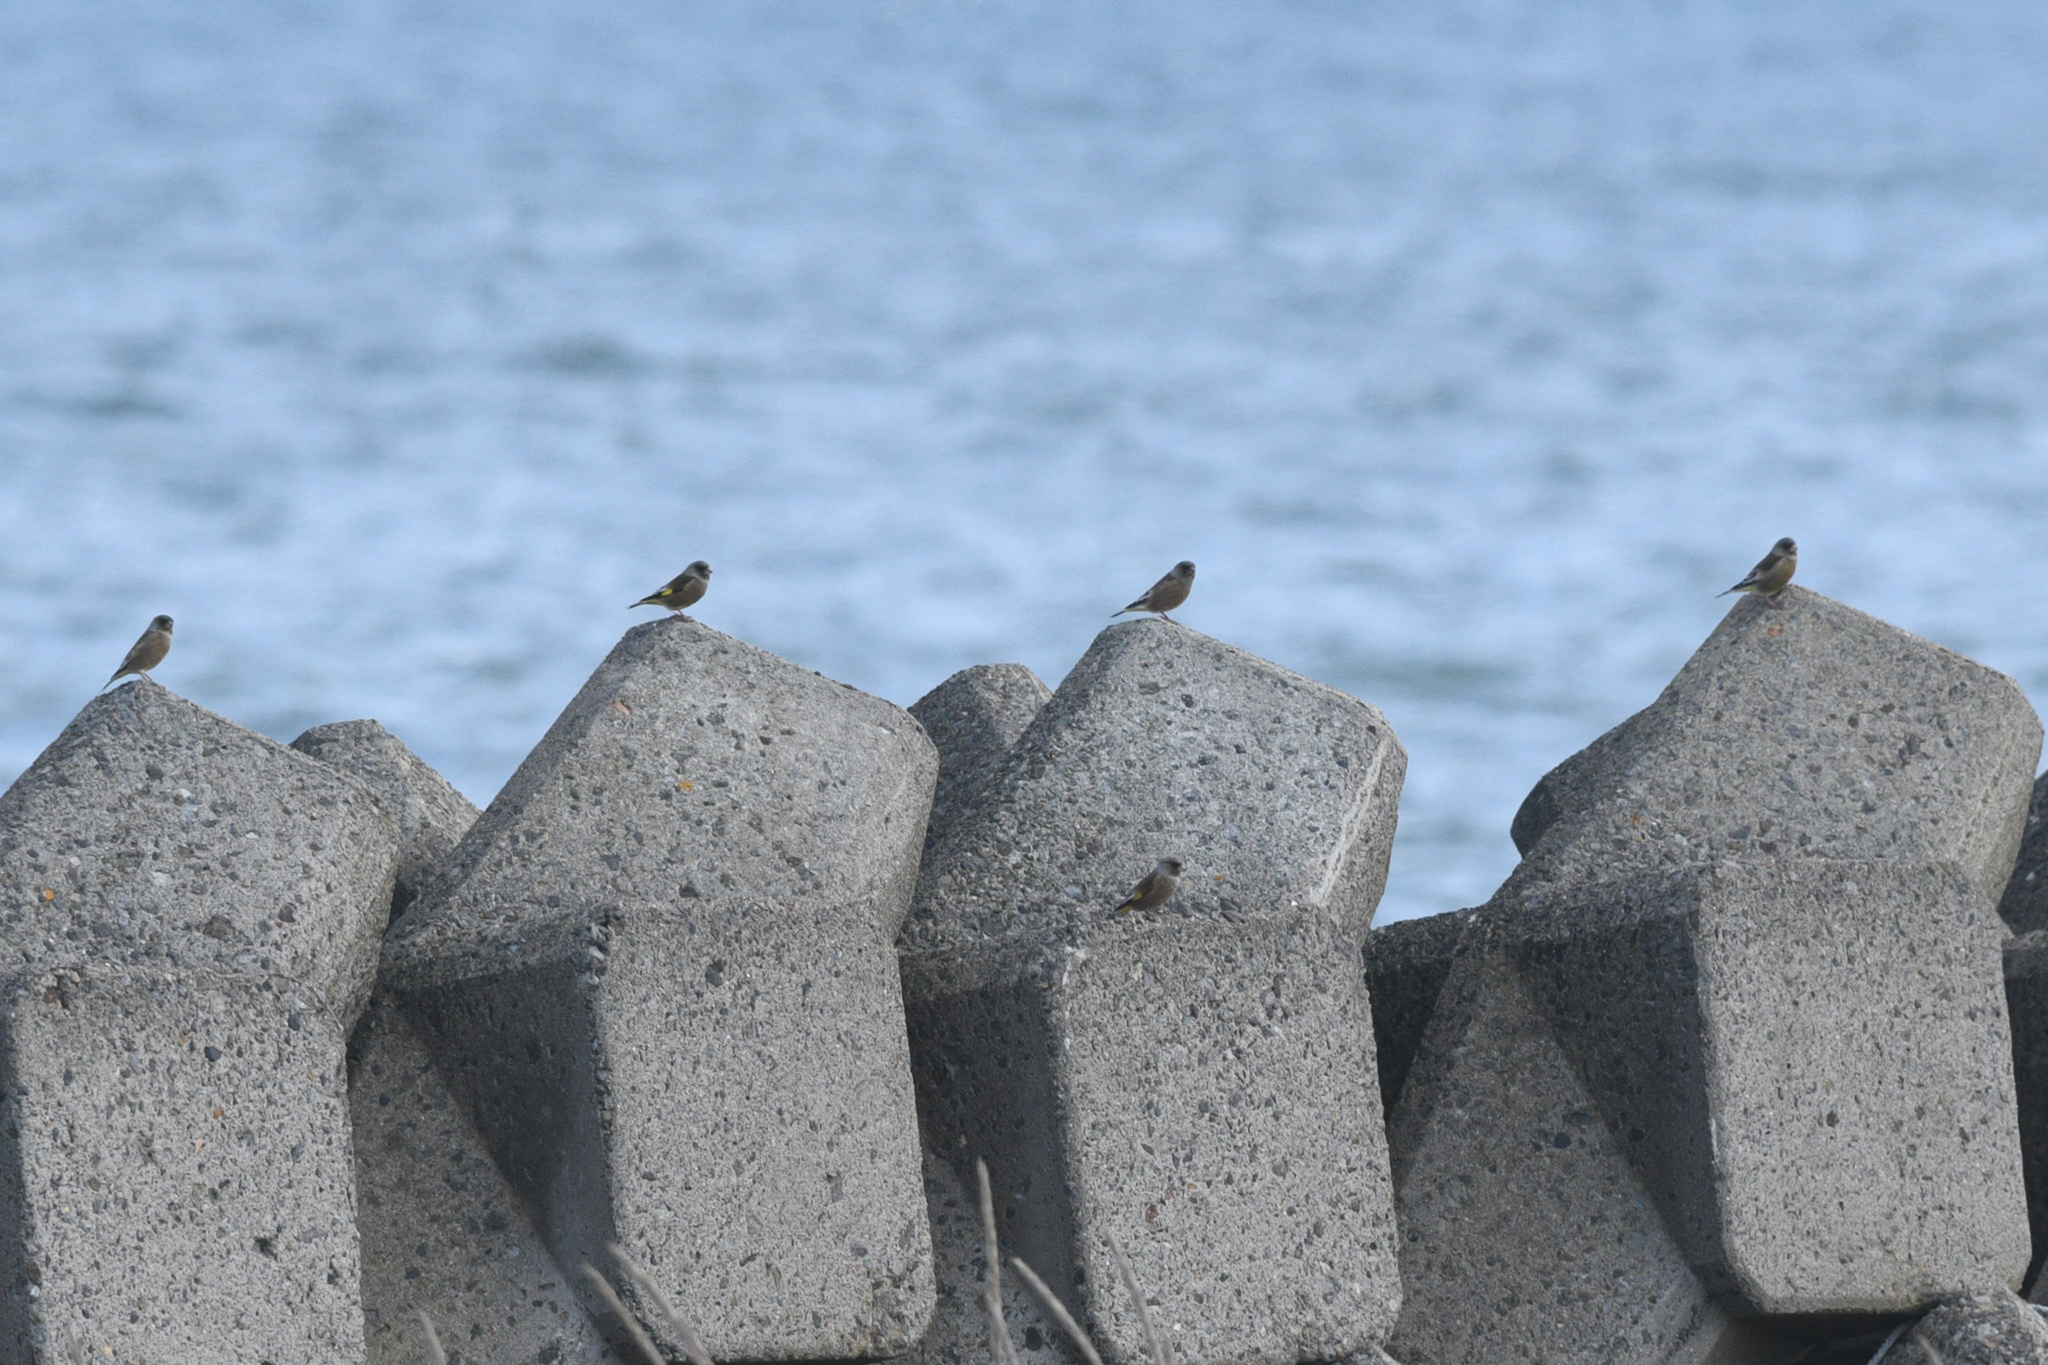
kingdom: Plantae
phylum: Tracheophyta
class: Liliopsida
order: Poales
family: Poaceae
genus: Chloris
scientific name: Chloris sinica
